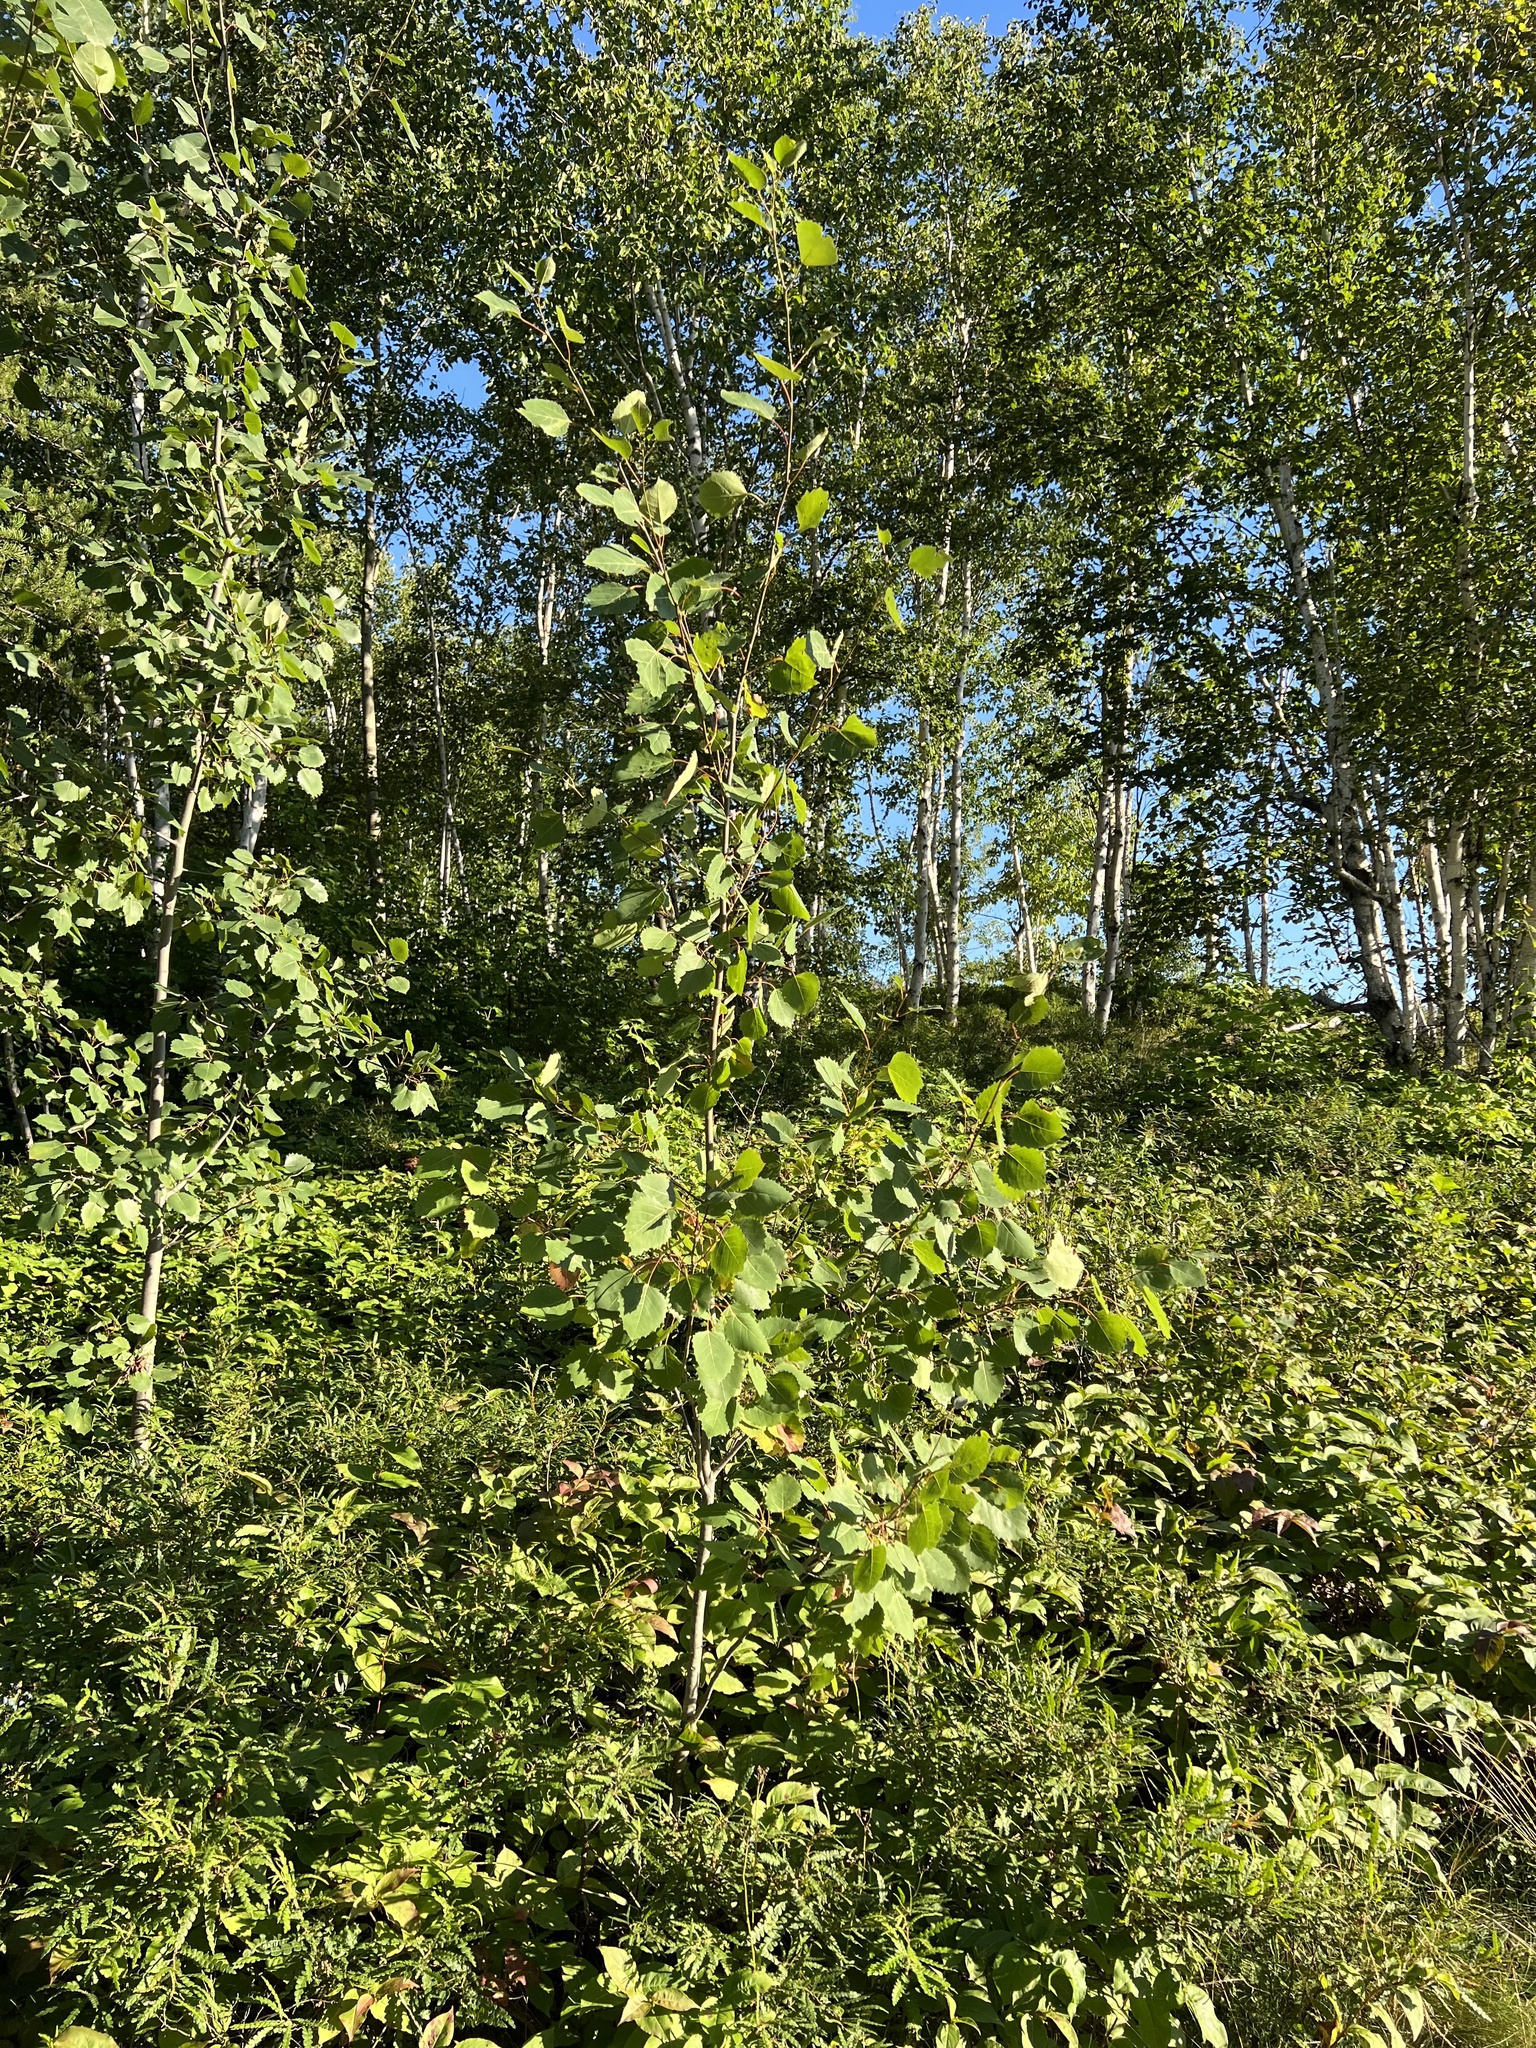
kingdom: Plantae
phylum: Tracheophyta
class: Magnoliopsida
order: Malpighiales
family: Salicaceae
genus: Populus
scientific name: Populus grandidentata
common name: Bigtooth aspen
